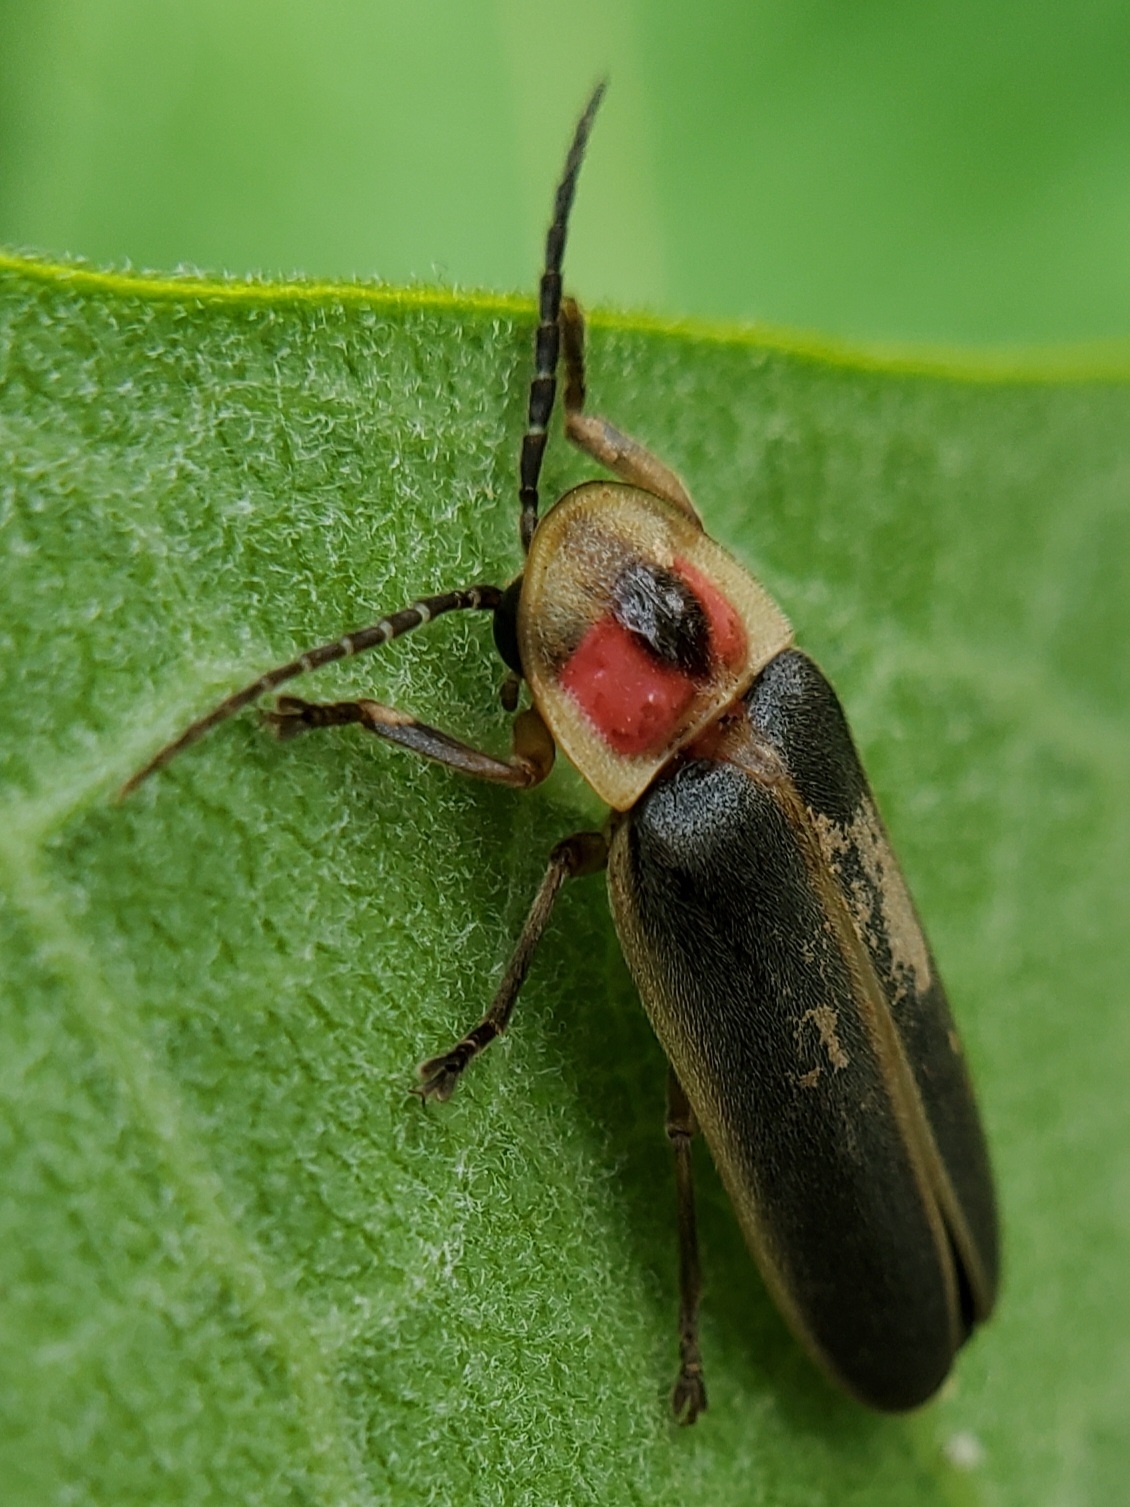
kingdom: Animalia
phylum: Arthropoda
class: Insecta
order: Coleoptera
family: Lampyridae
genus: Photinus
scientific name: Photinus pyralis
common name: Big dipper firefly
